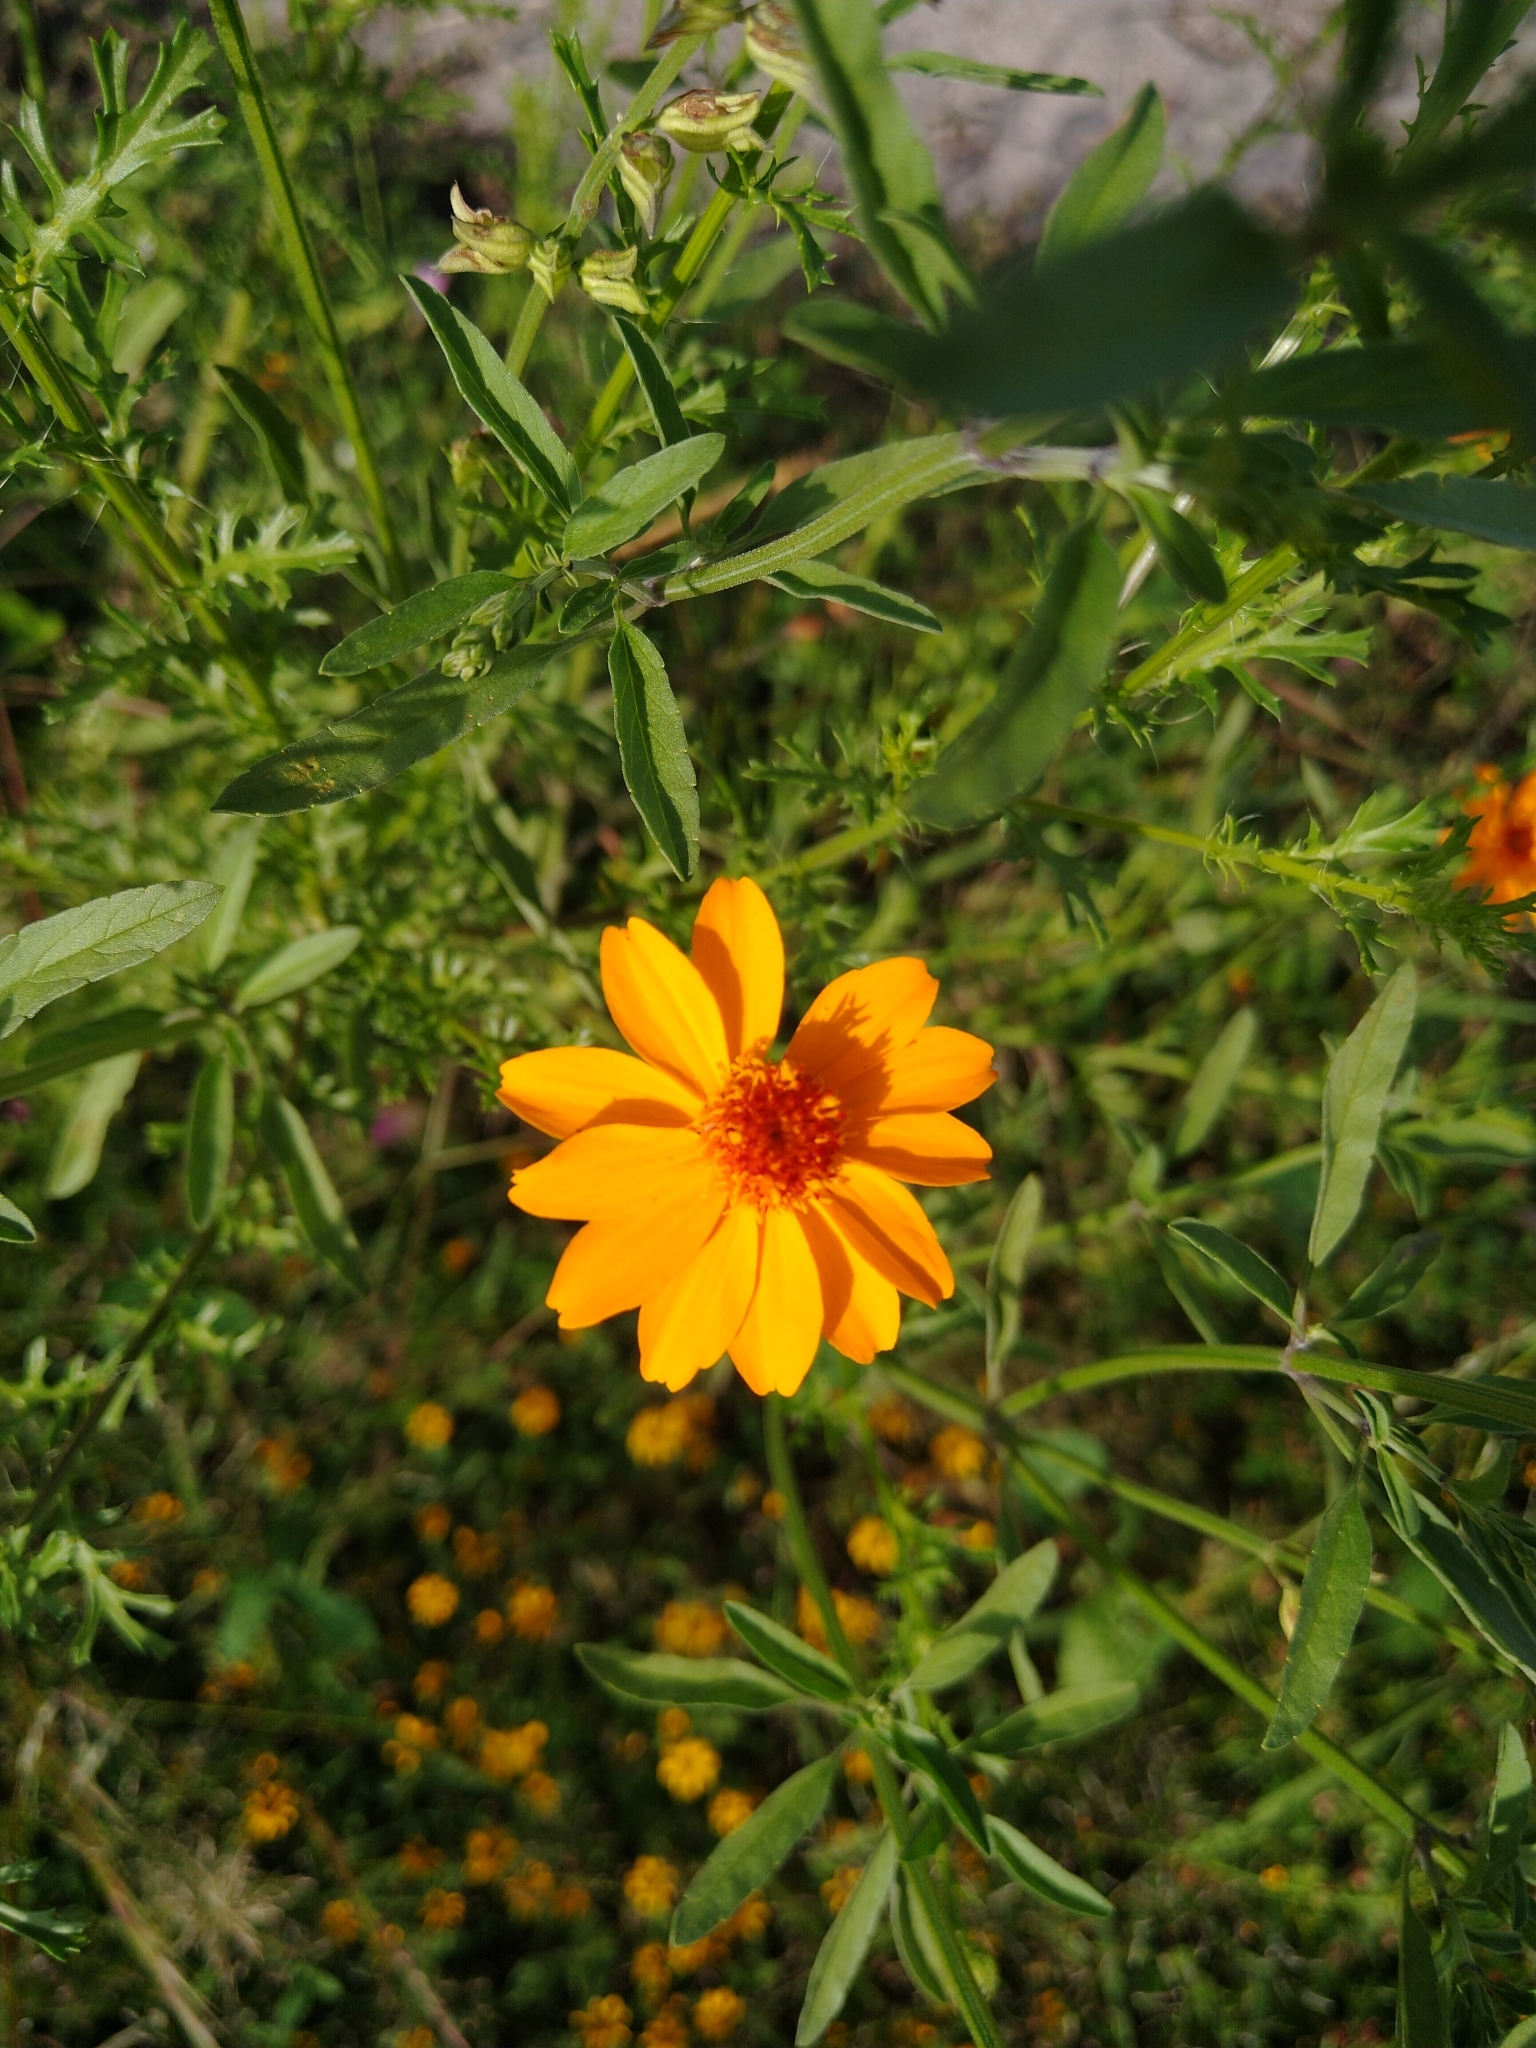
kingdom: Plantae
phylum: Tracheophyta
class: Magnoliopsida
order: Asterales
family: Asteraceae
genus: Adenophyllum
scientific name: Adenophyllum cancellatum
